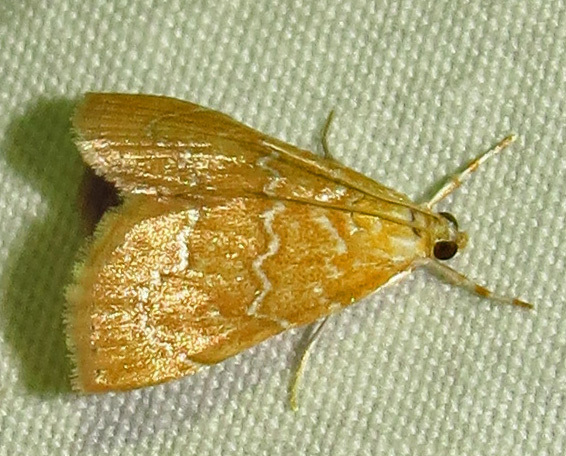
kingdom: Animalia
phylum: Arthropoda
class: Insecta
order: Lepidoptera
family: Crambidae
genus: Glaphyria
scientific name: Glaphyria sesquistrialis
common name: White-roped glaphyria
